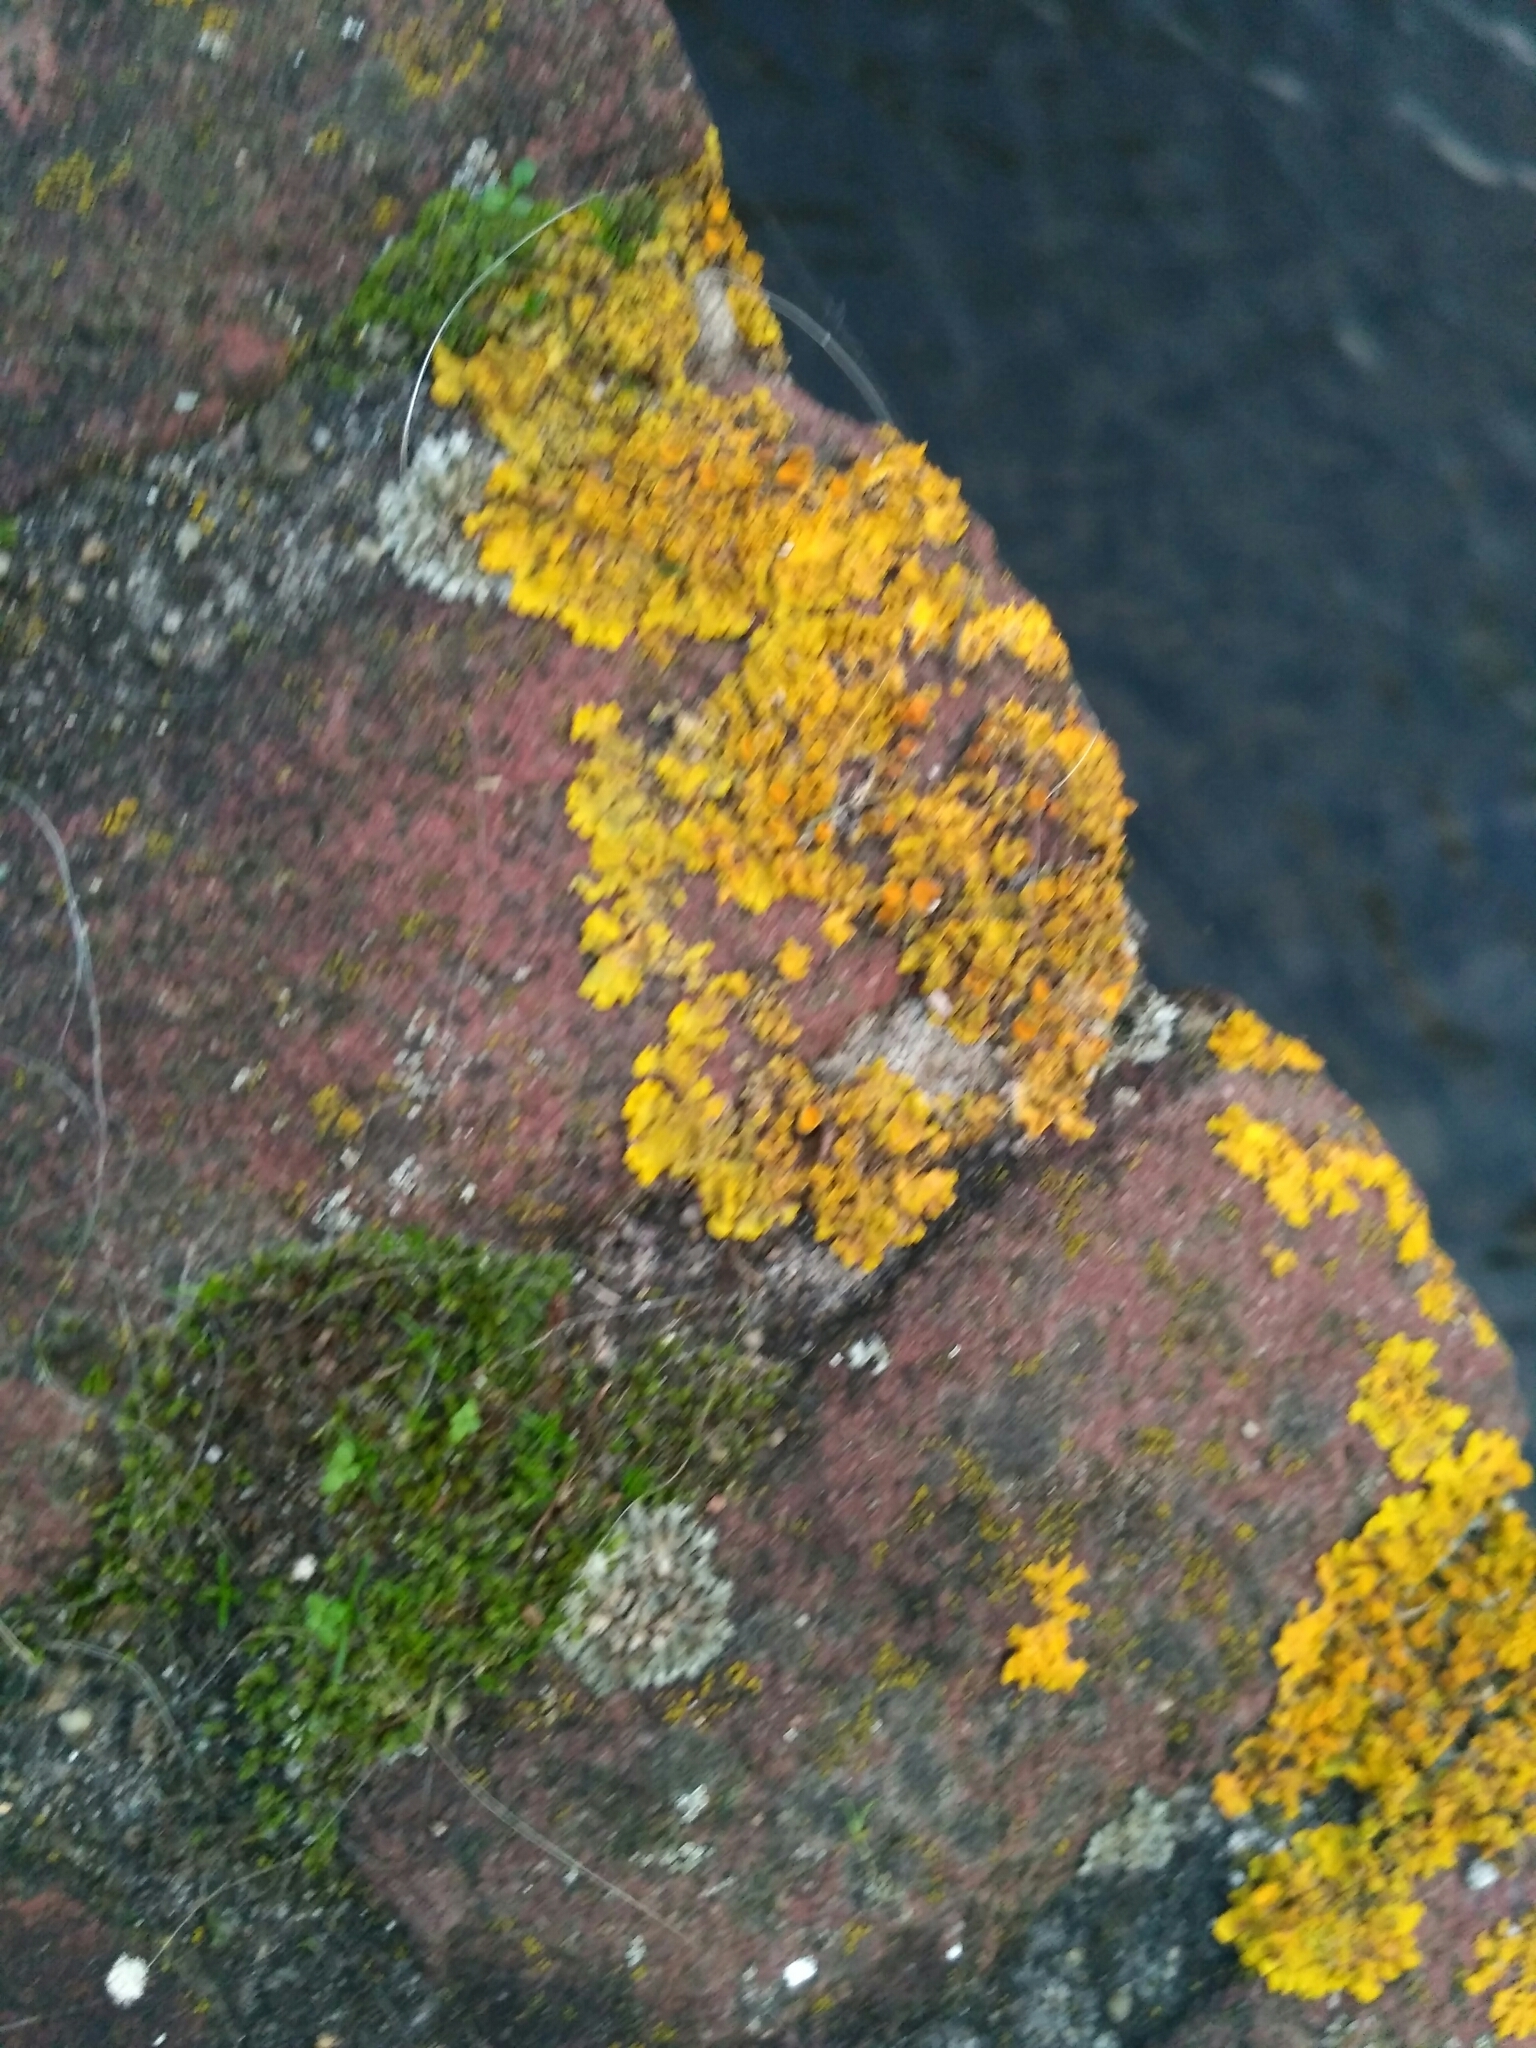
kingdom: Fungi
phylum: Ascomycota
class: Lecanoromycetes
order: Teloschistales
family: Teloschistaceae
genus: Xanthoria
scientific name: Xanthoria parietina
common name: Common orange lichen
